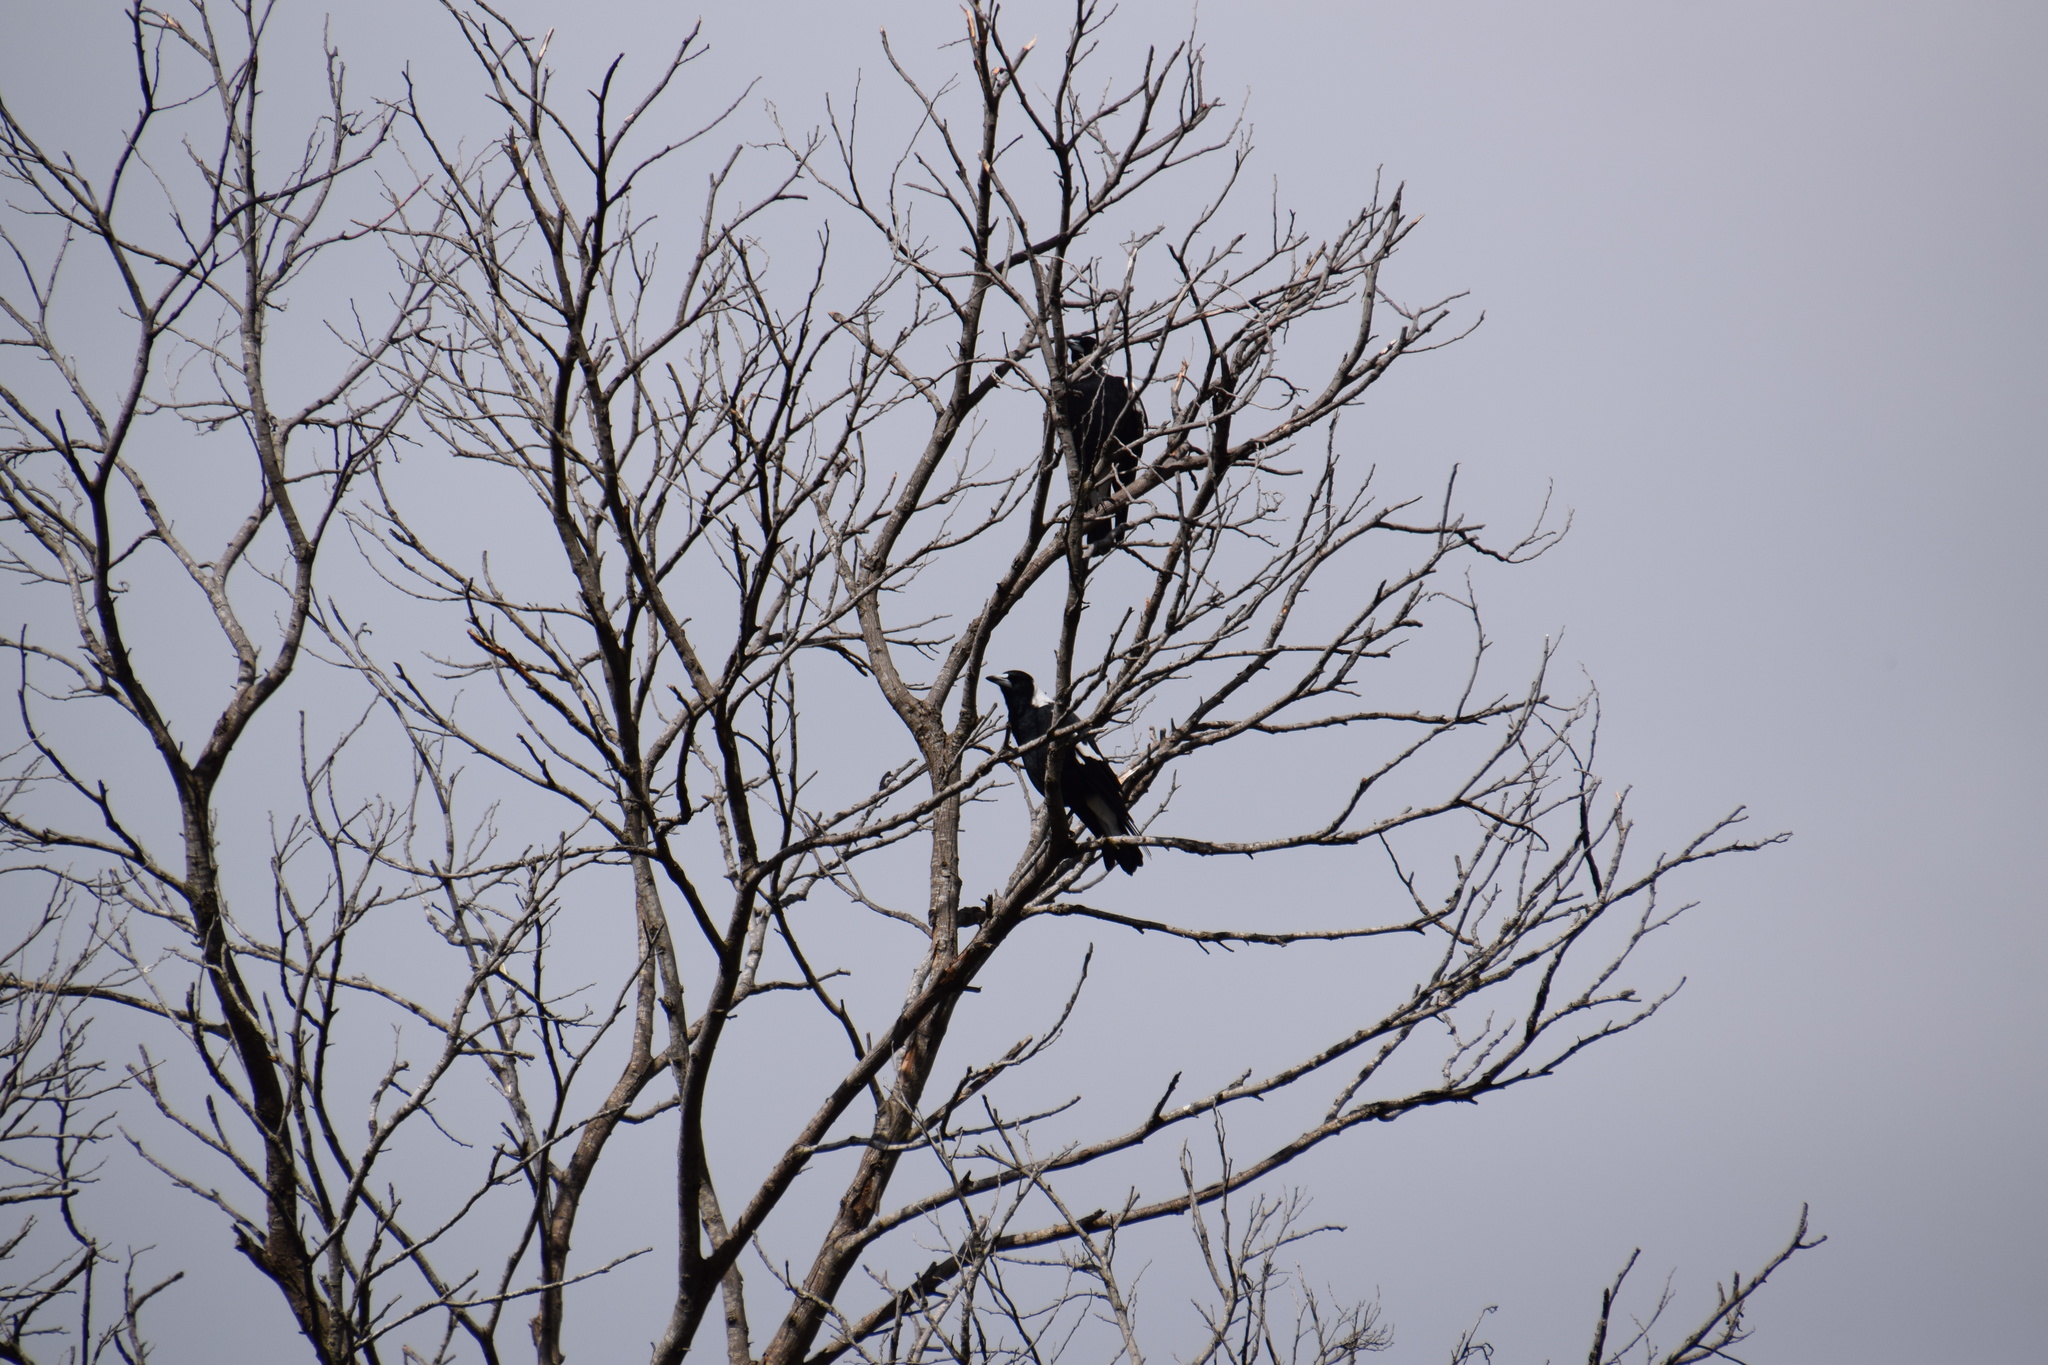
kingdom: Animalia
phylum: Chordata
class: Aves
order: Passeriformes
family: Cracticidae
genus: Gymnorhina
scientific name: Gymnorhina tibicen
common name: Australian magpie
